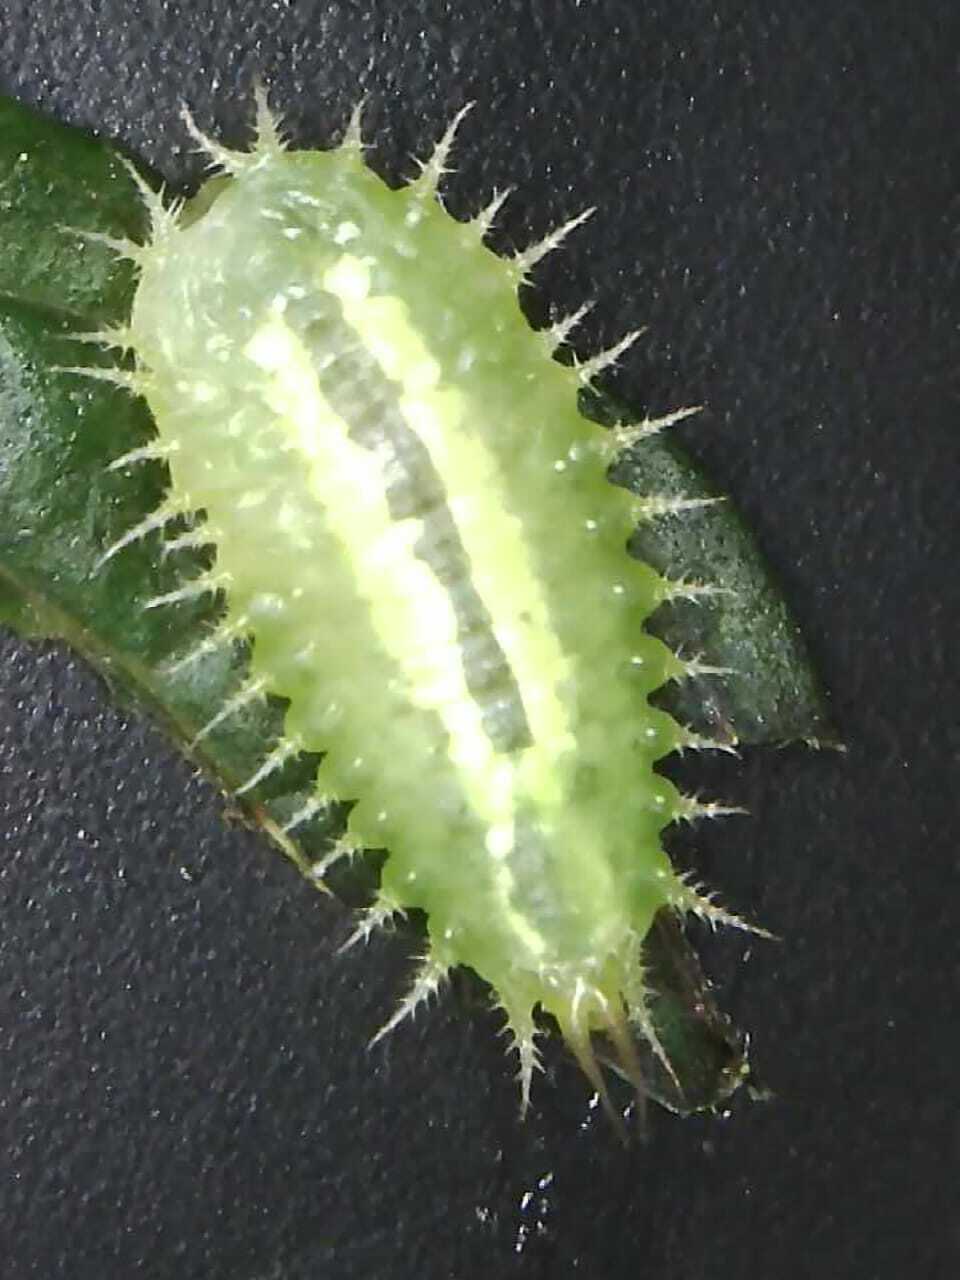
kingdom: Animalia
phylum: Arthropoda
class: Insecta
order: Coleoptera
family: Chrysomelidae
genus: Cassida
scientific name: Cassida viridis
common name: Green tortoise beetle
